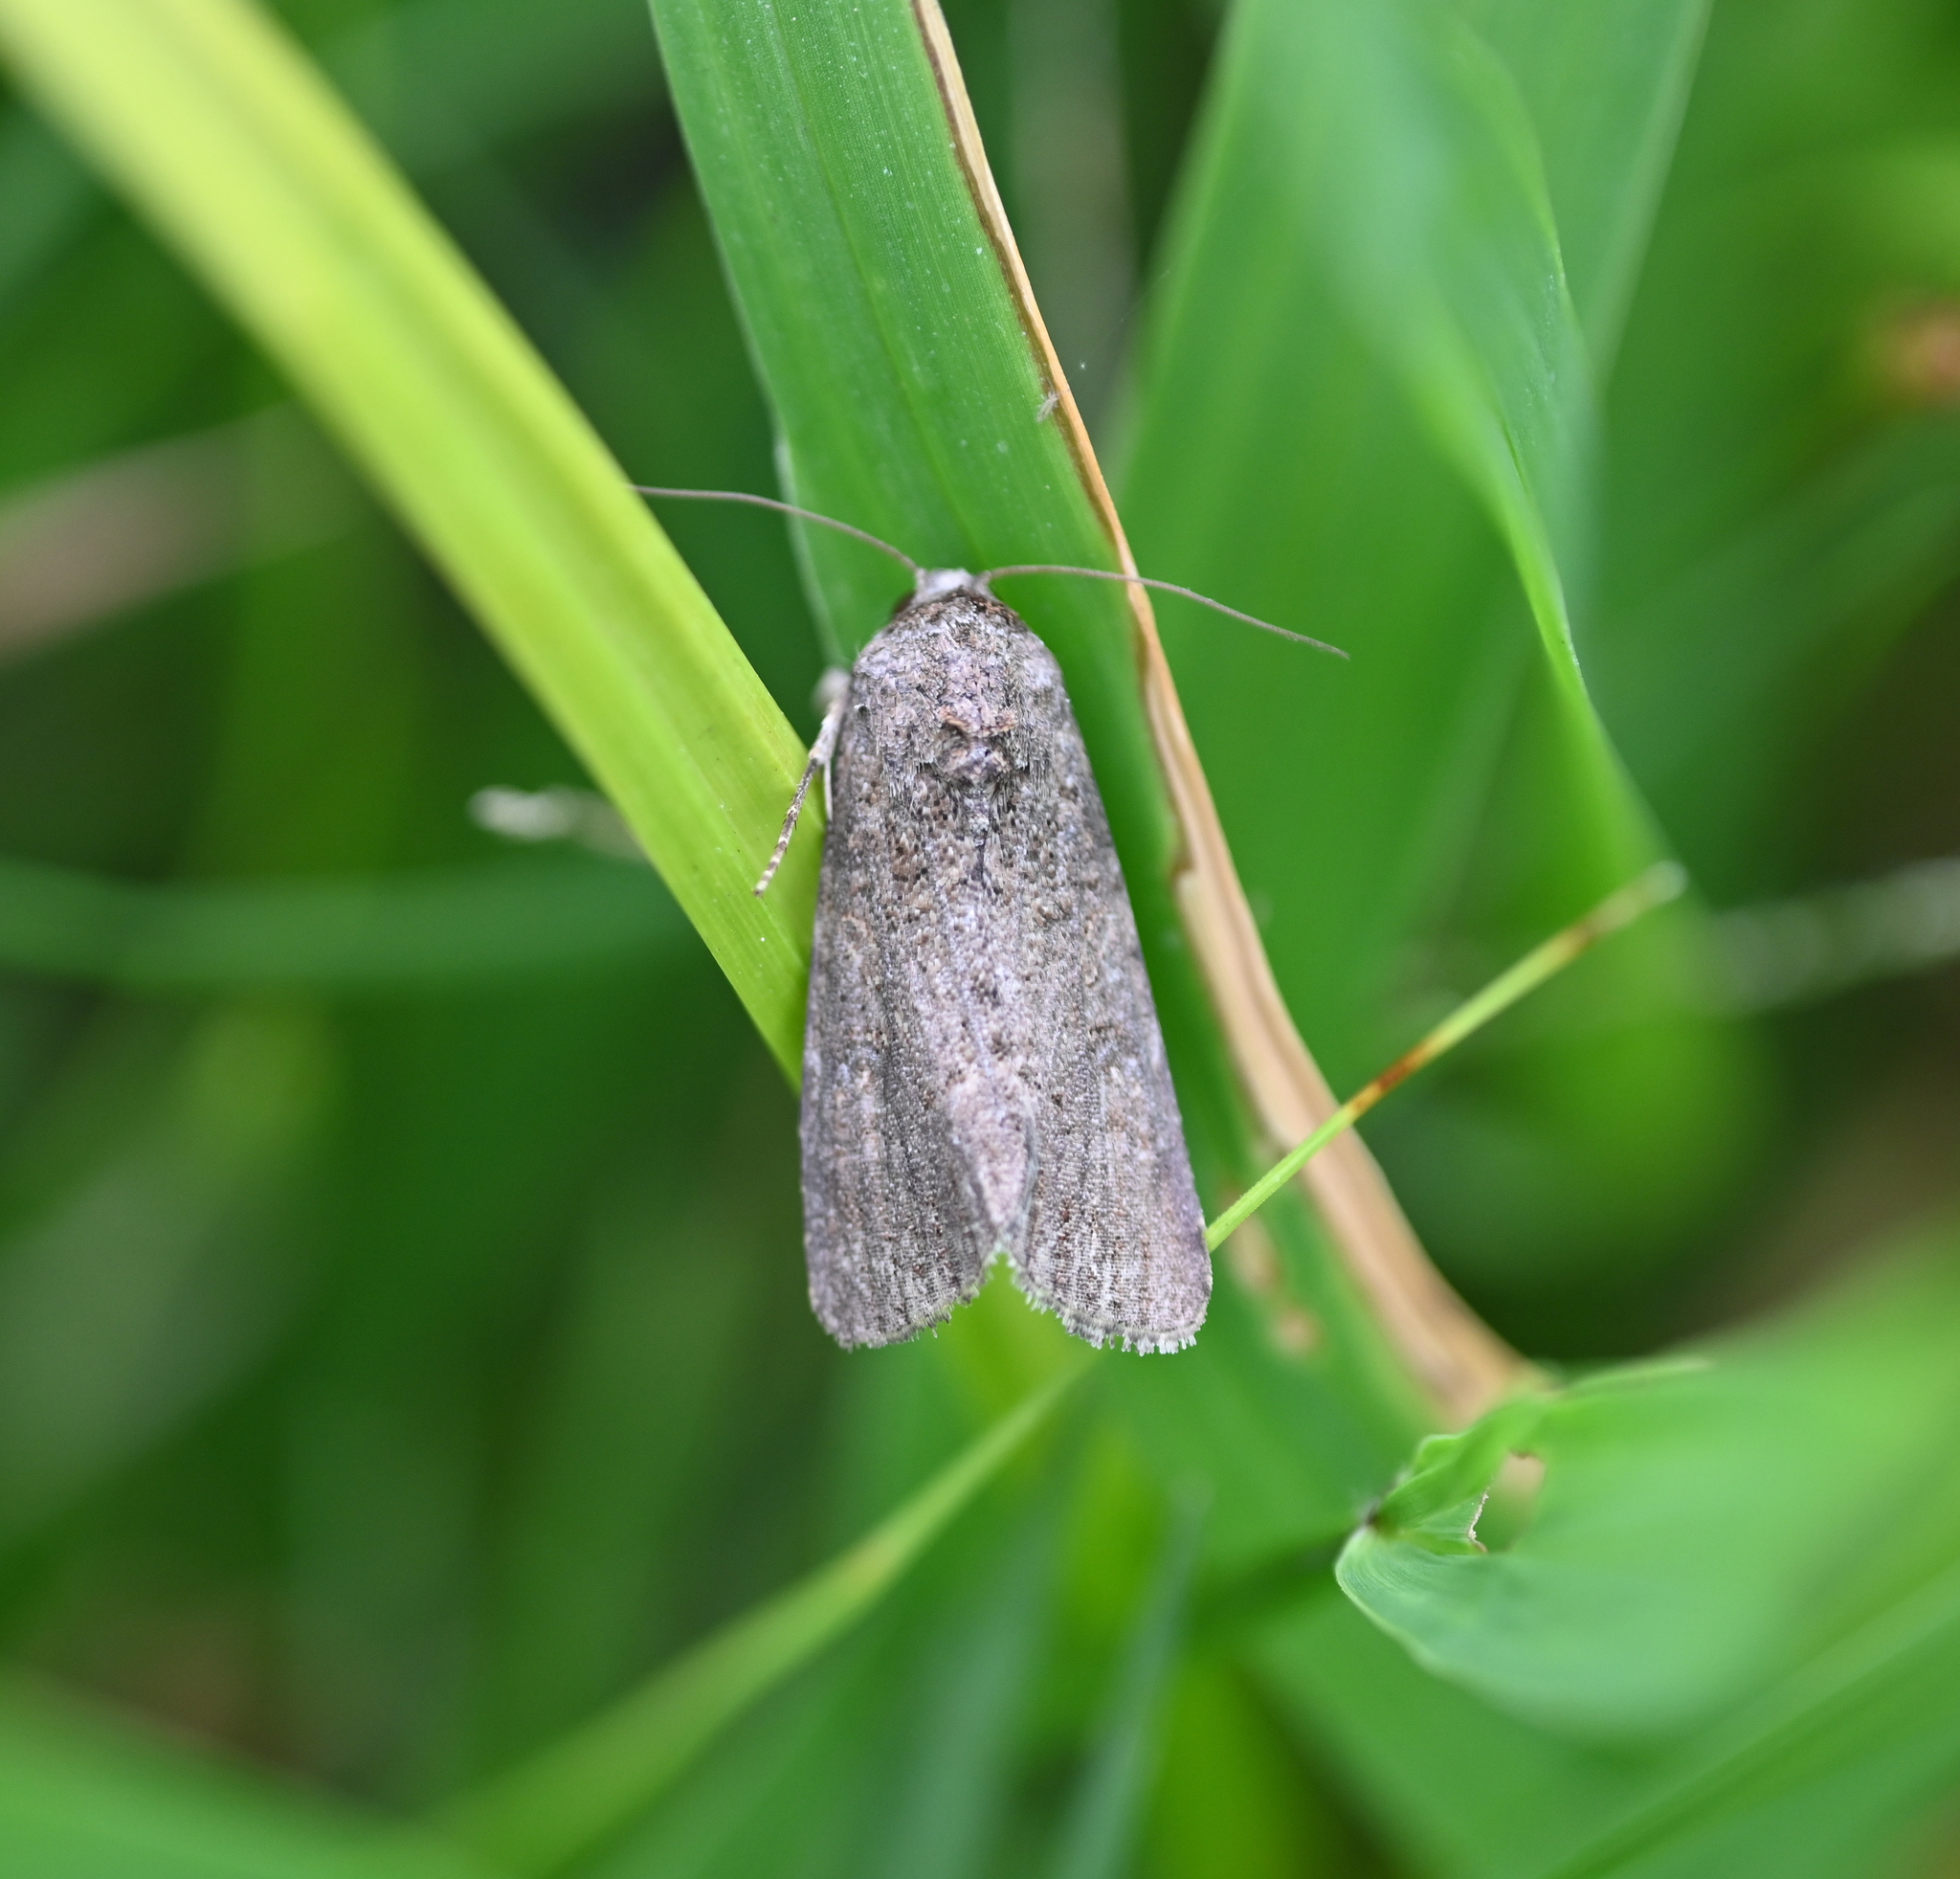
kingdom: Animalia
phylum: Arthropoda
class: Insecta
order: Lepidoptera
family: Noctuidae
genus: Spodoptera
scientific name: Spodoptera exigua
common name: Beet armyworm
